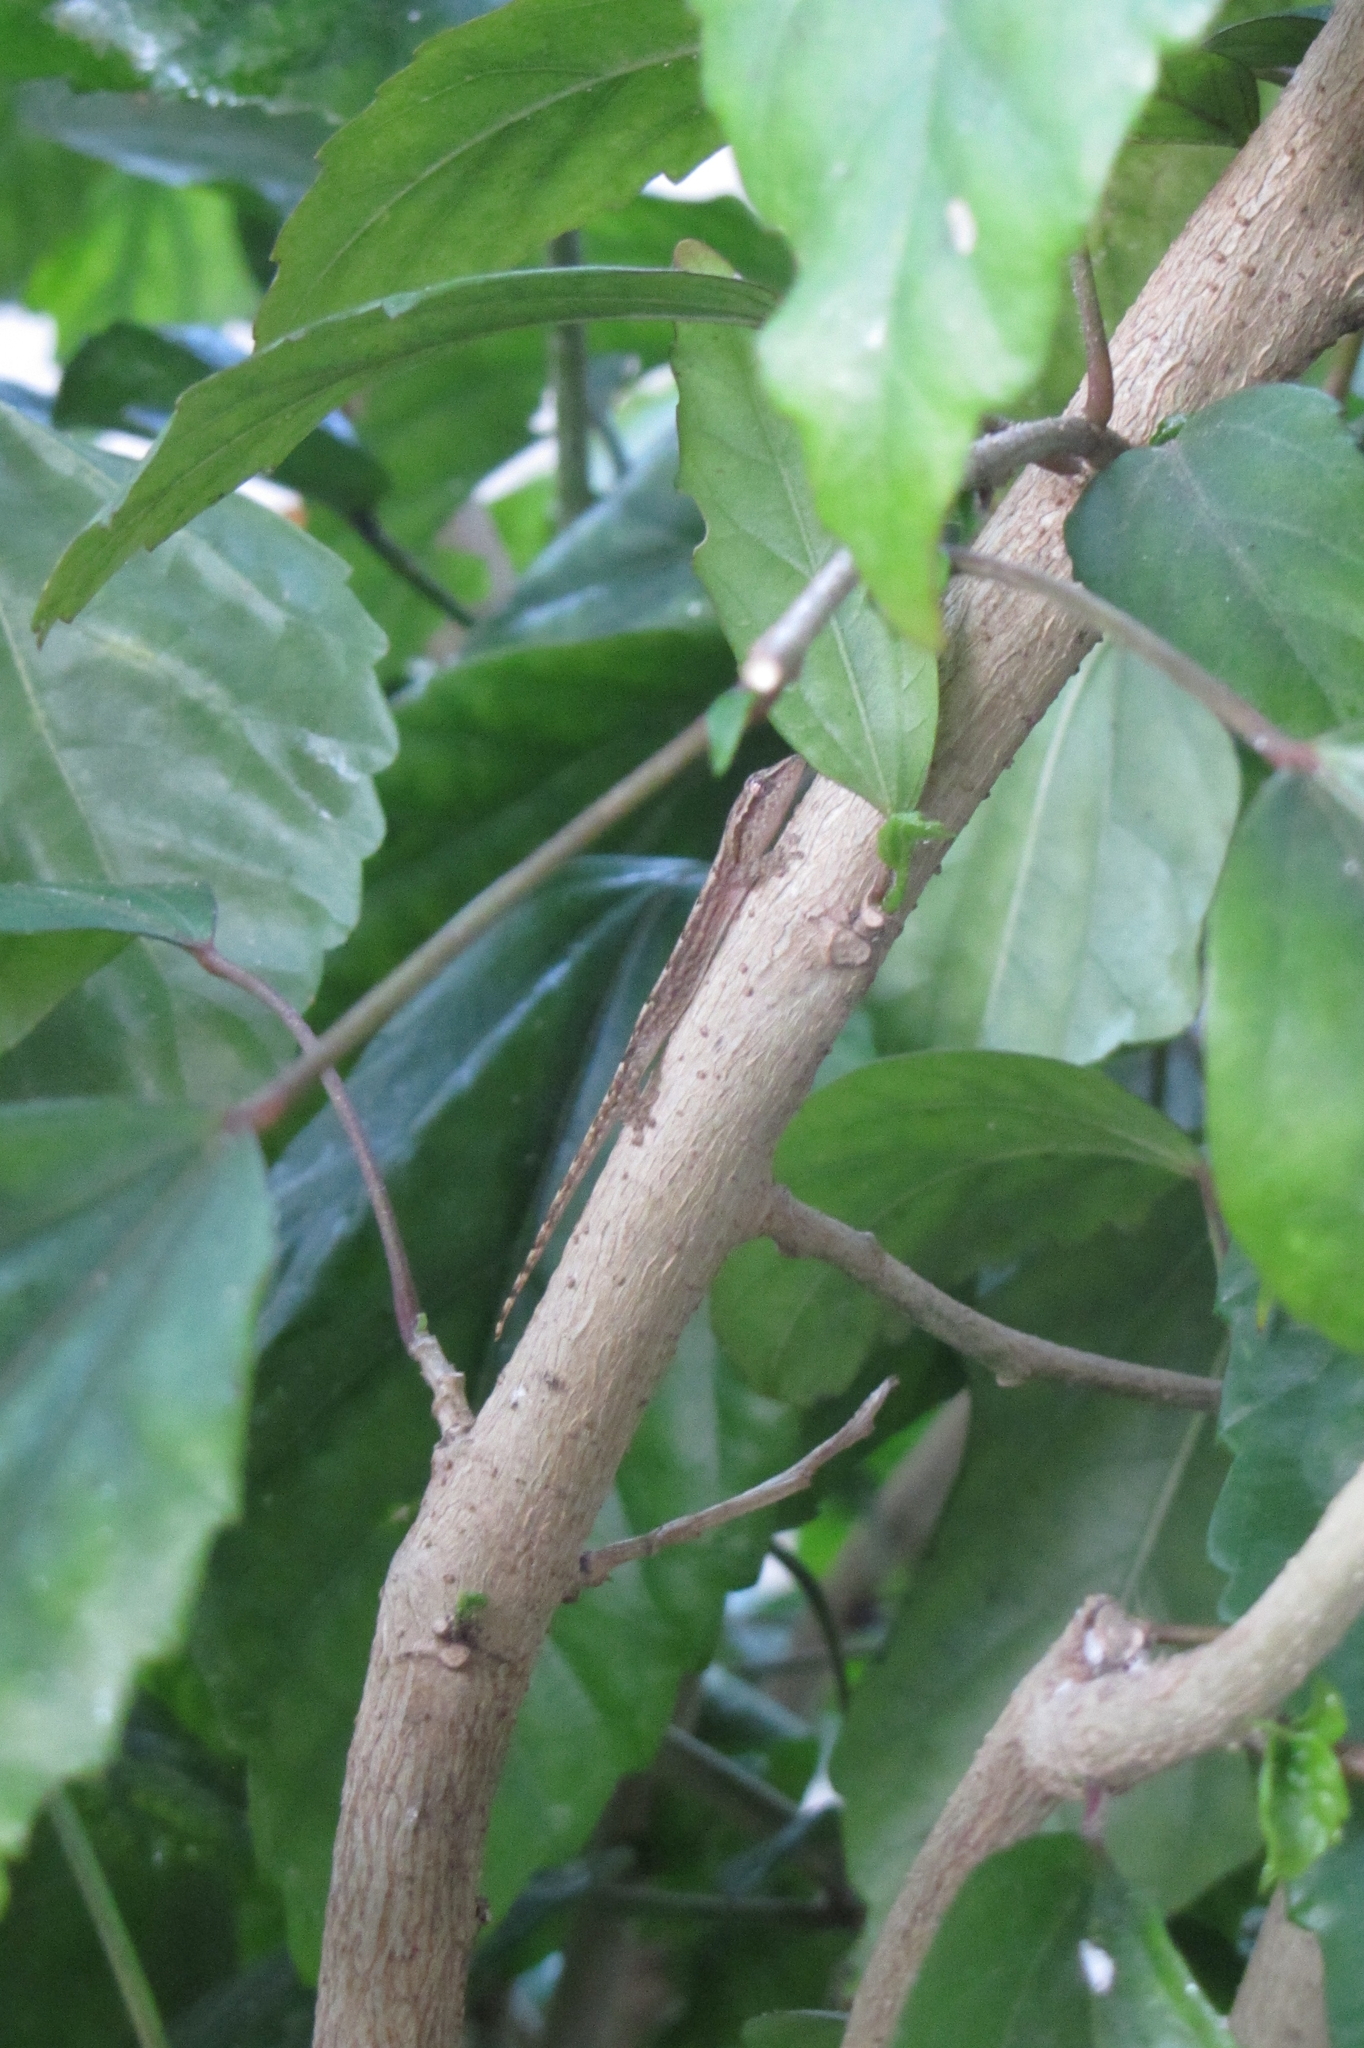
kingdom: Animalia
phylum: Chordata
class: Squamata
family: Gekkonidae
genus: Lepidodactylus
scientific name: Lepidodactylus lugubris
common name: Mourning gecko
